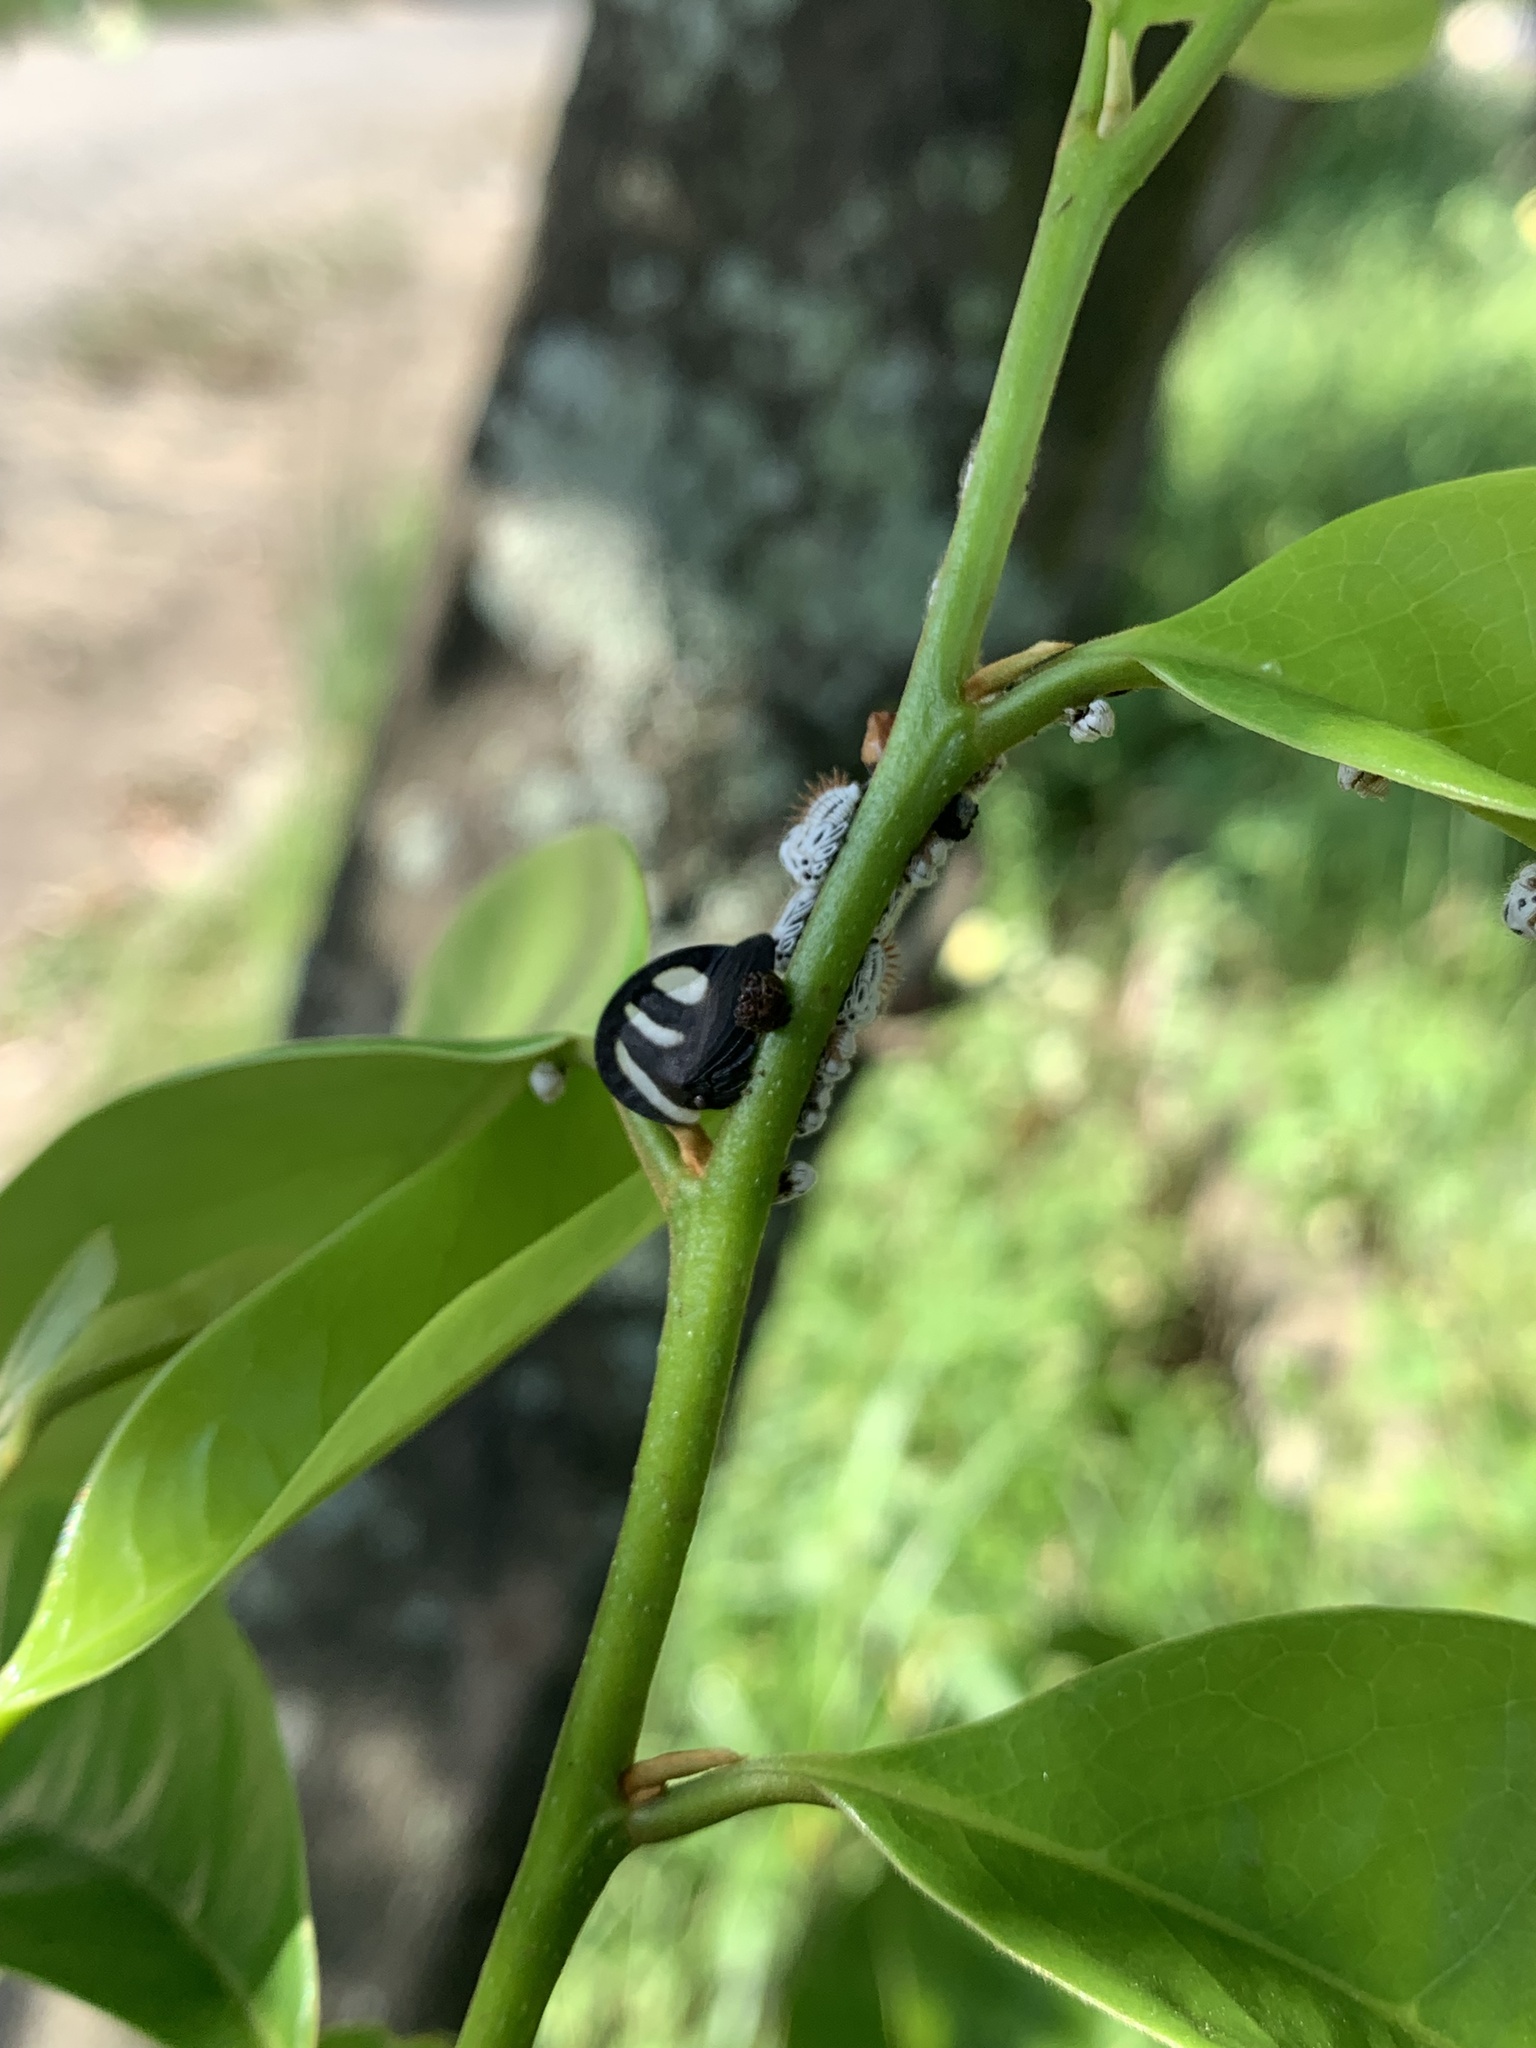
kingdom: Animalia
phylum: Arthropoda
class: Insecta
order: Hemiptera
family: Membracidae
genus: Membracis
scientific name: Membracis
